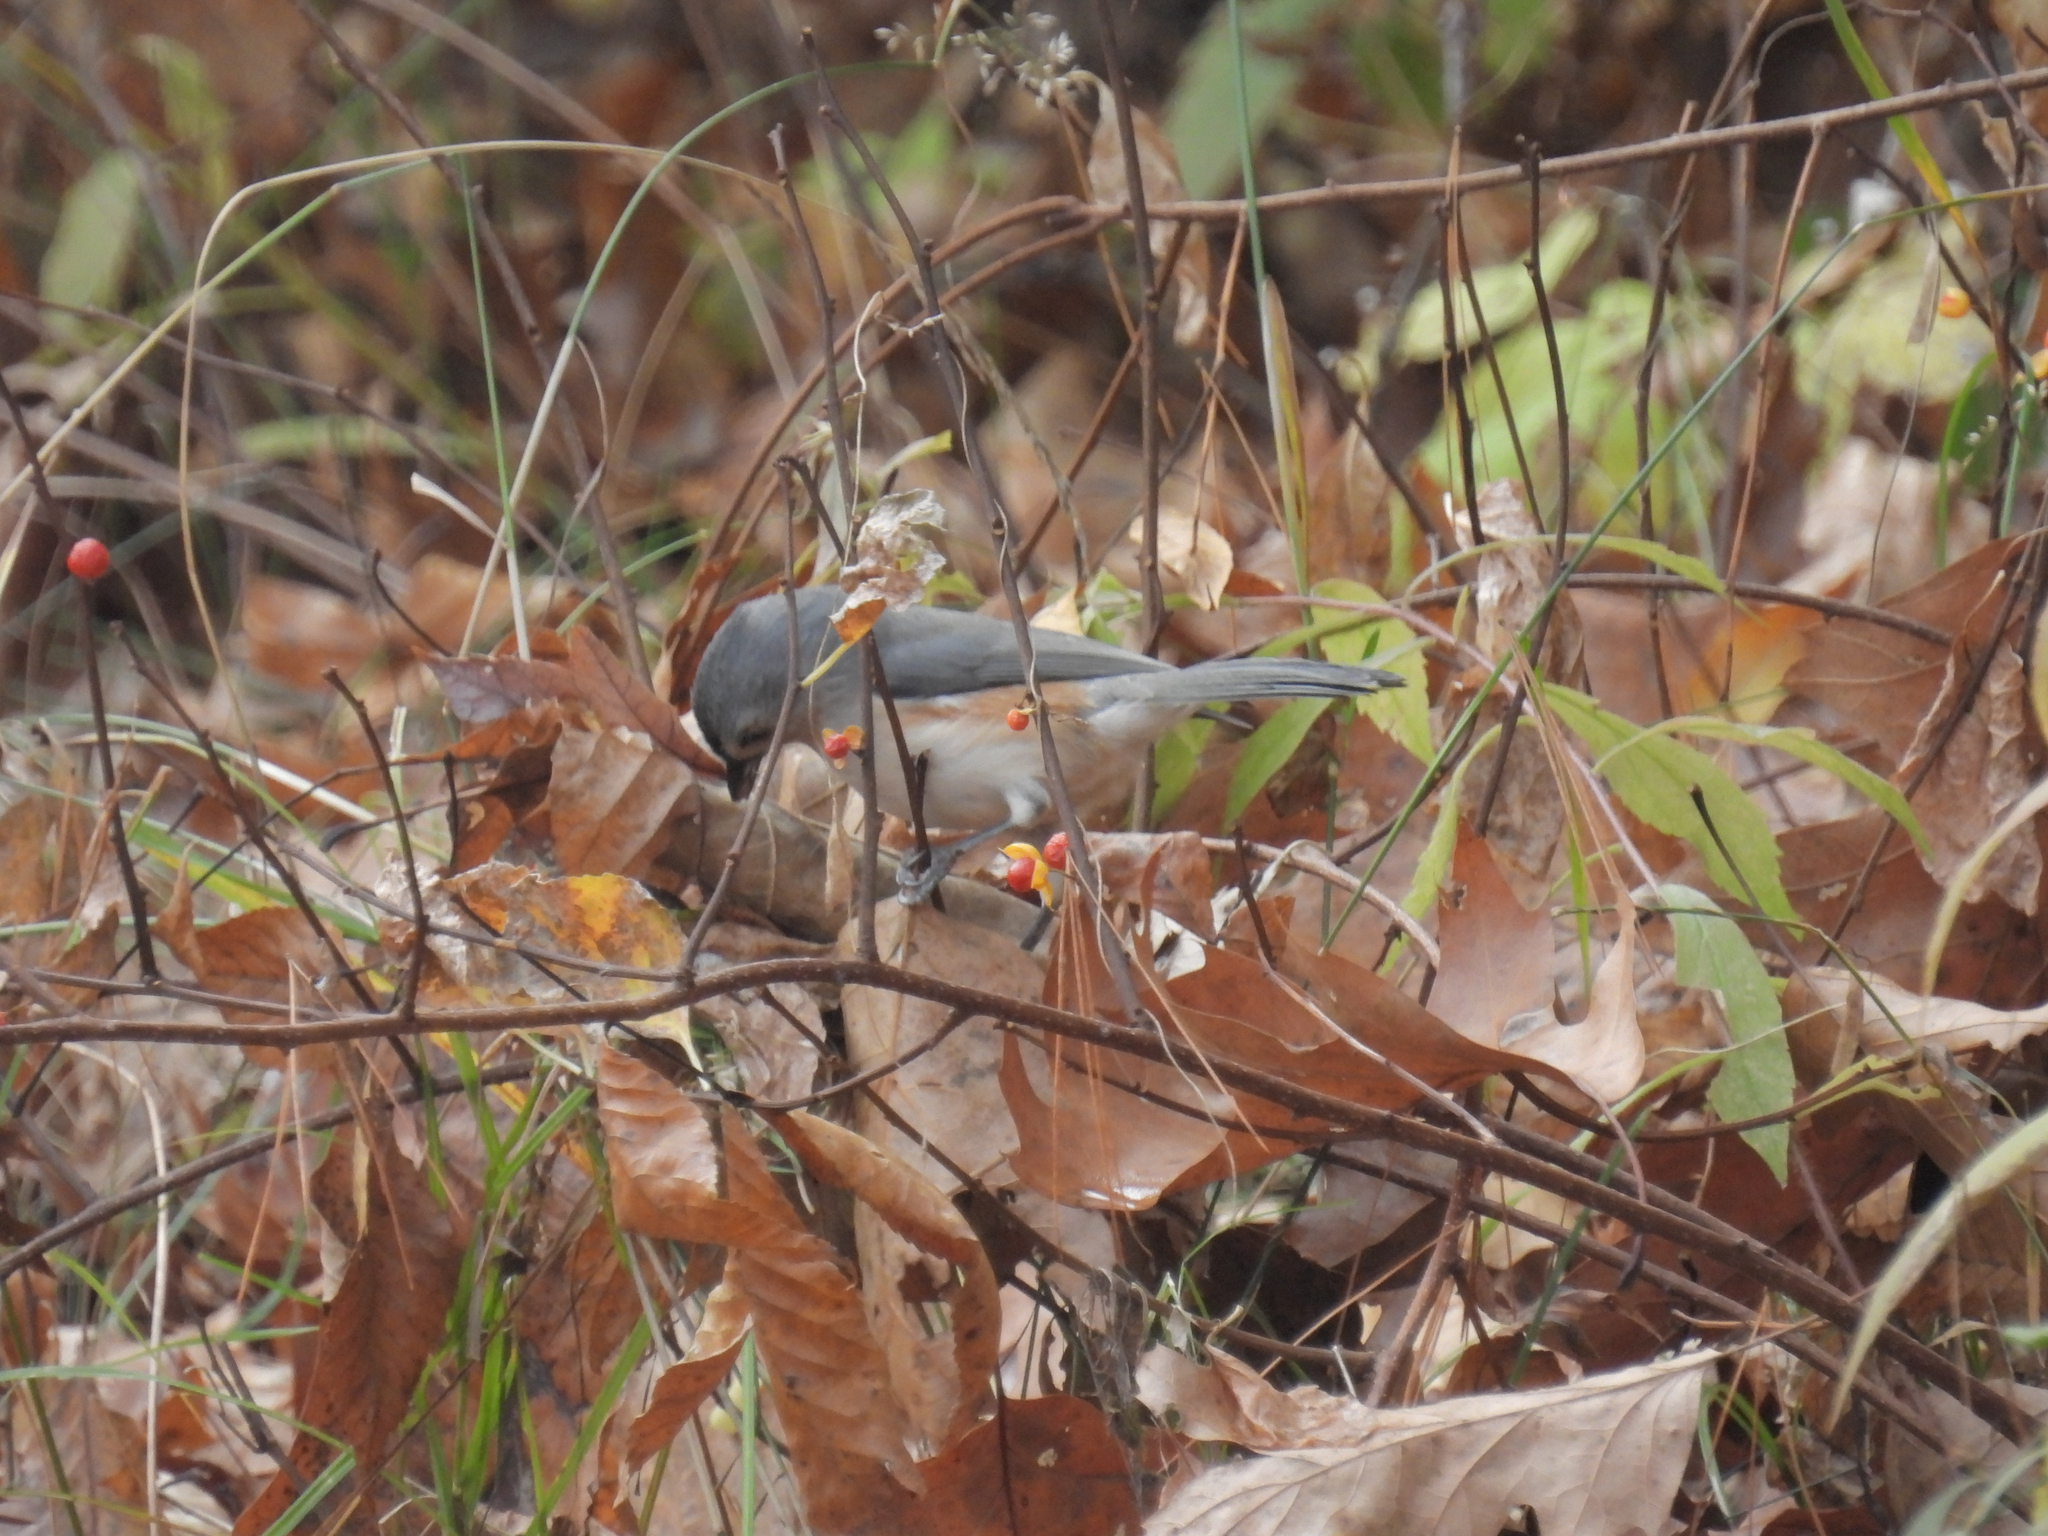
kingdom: Animalia
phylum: Chordata
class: Aves
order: Passeriformes
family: Paridae
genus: Baeolophus
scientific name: Baeolophus bicolor
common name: Tufted titmouse
